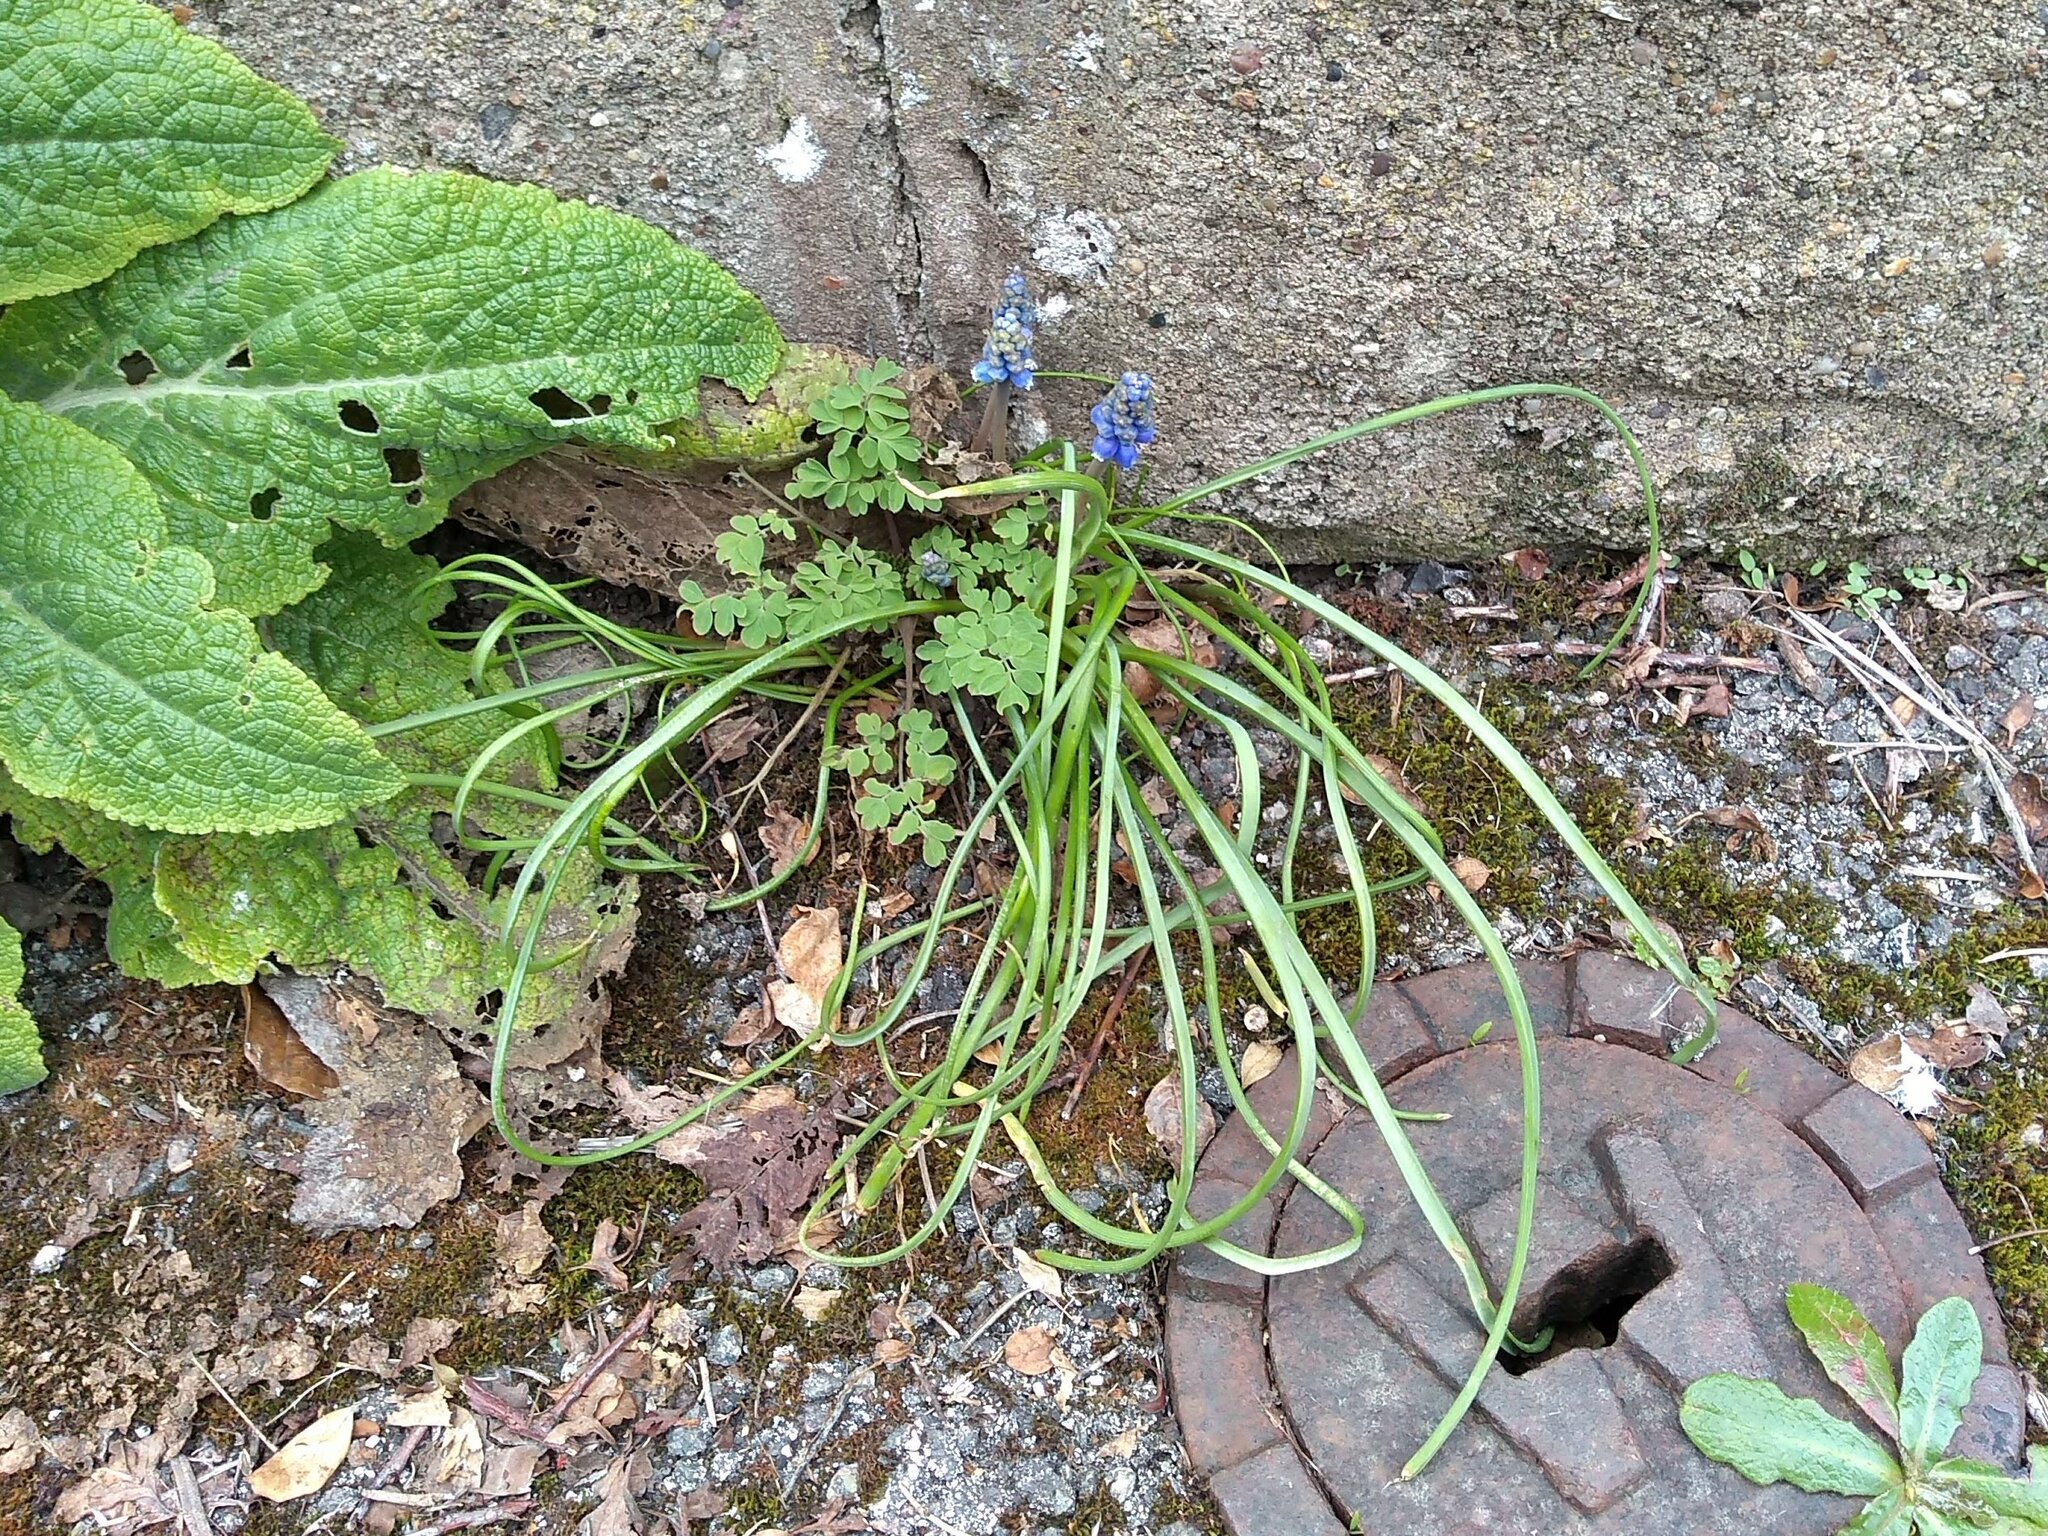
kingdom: Plantae
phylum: Tracheophyta
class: Liliopsida
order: Asparagales
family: Asparagaceae
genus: Muscari
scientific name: Muscari armeniacum
